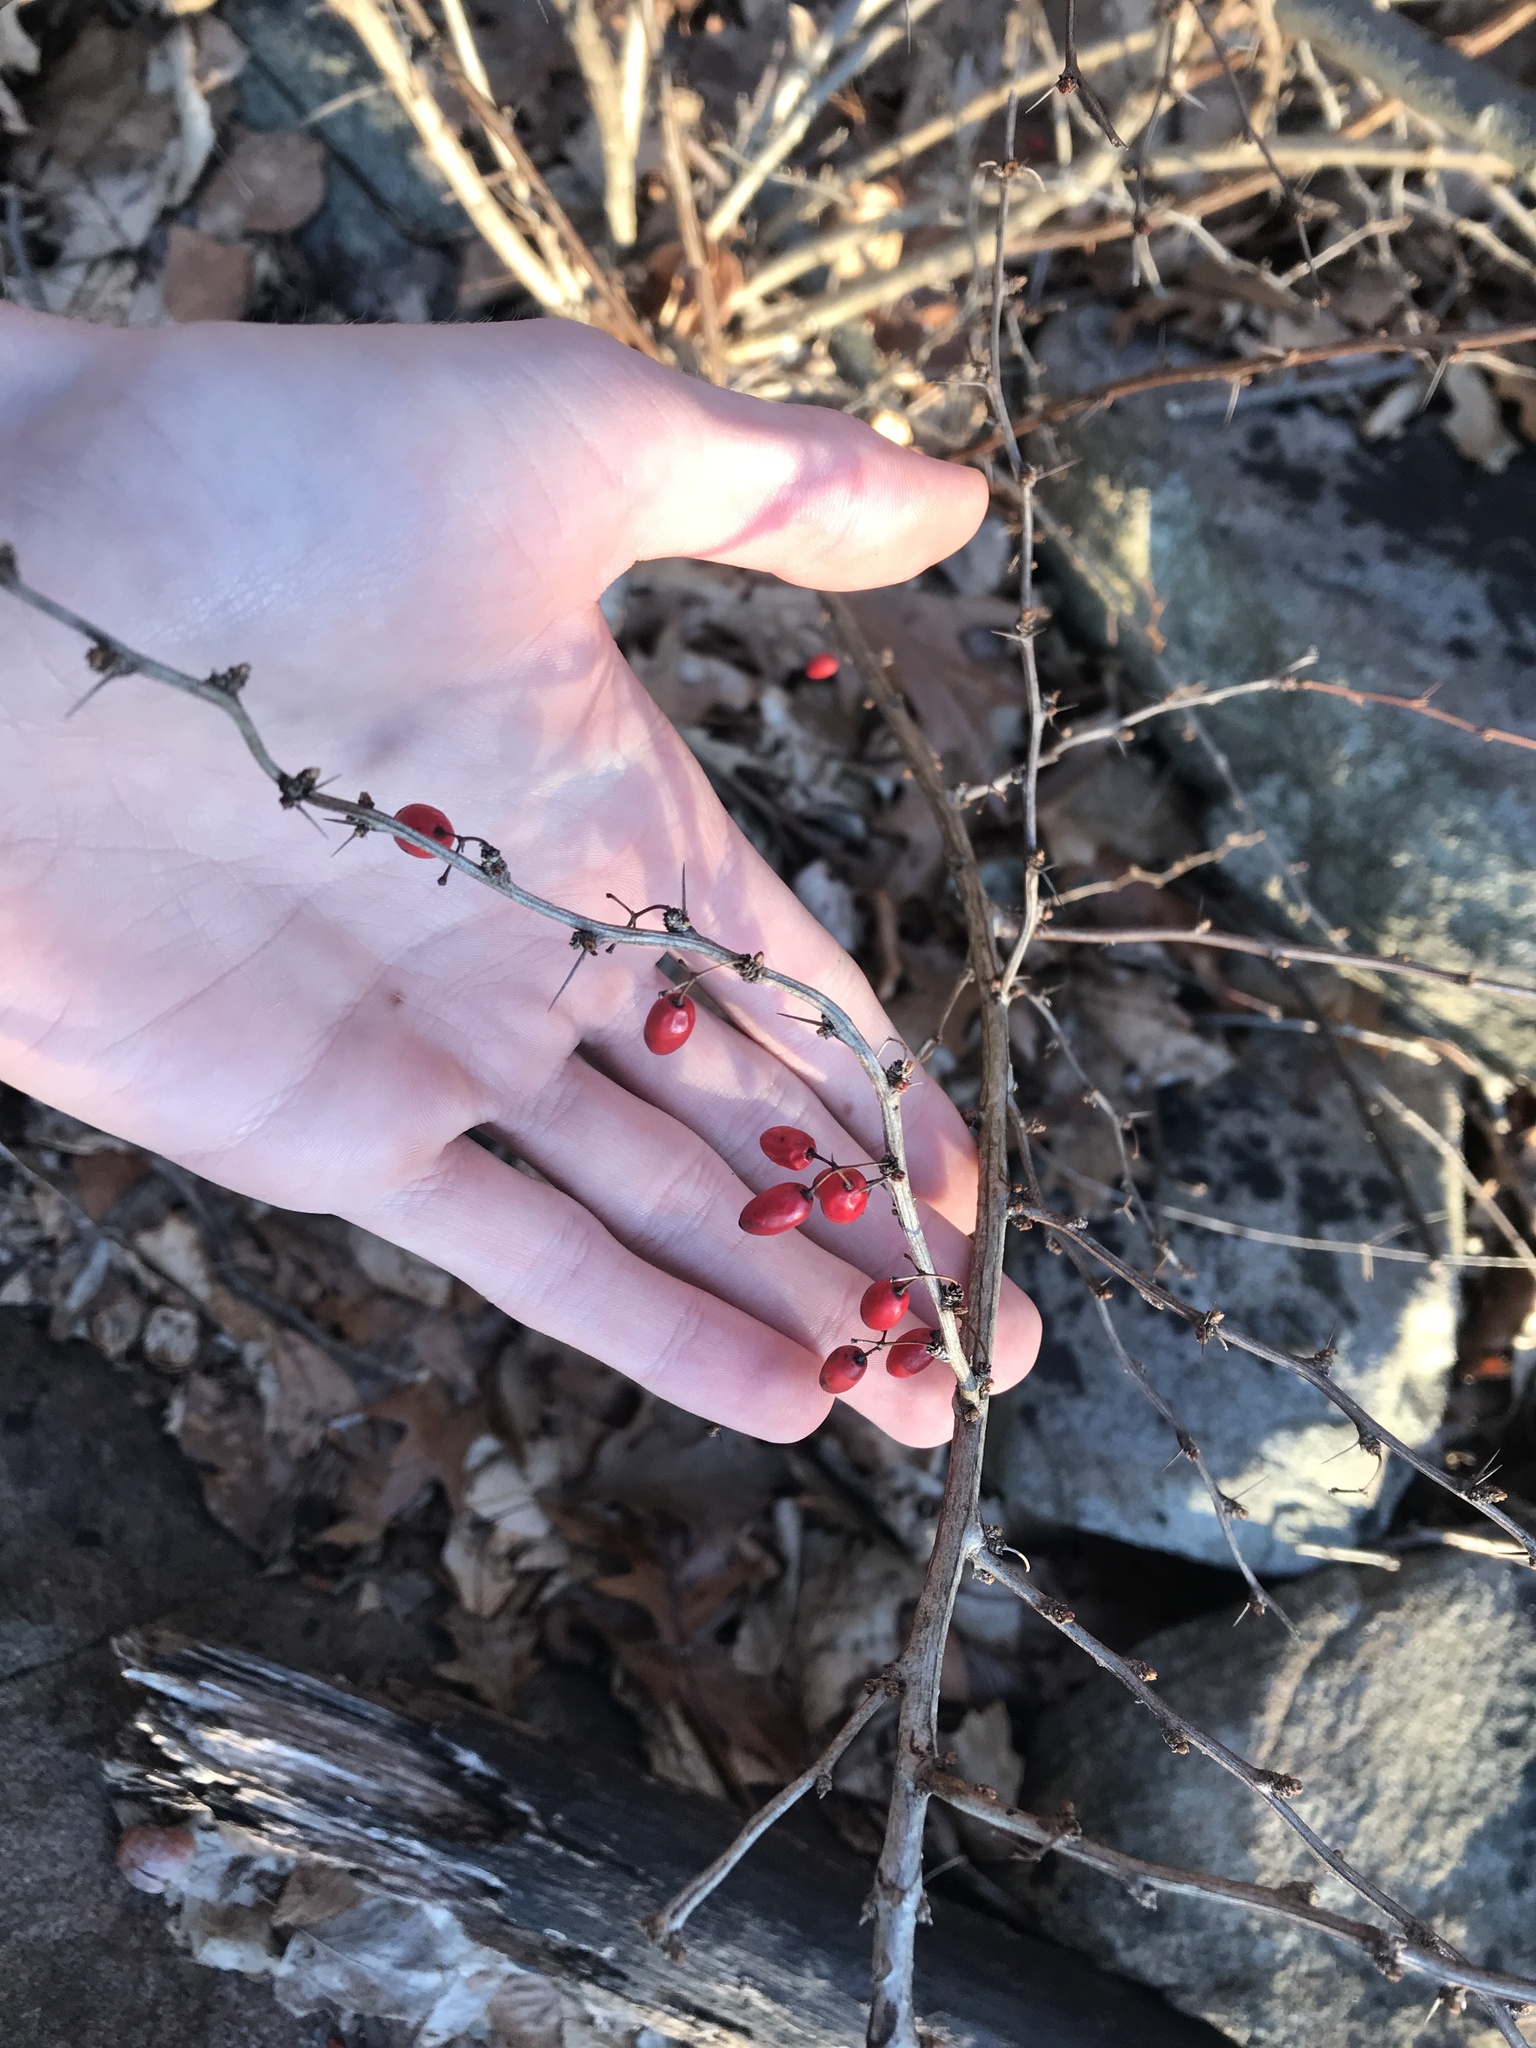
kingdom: Plantae
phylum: Tracheophyta
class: Magnoliopsida
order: Ranunculales
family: Berberidaceae
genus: Berberis
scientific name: Berberis thunbergii
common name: Japanese barberry
